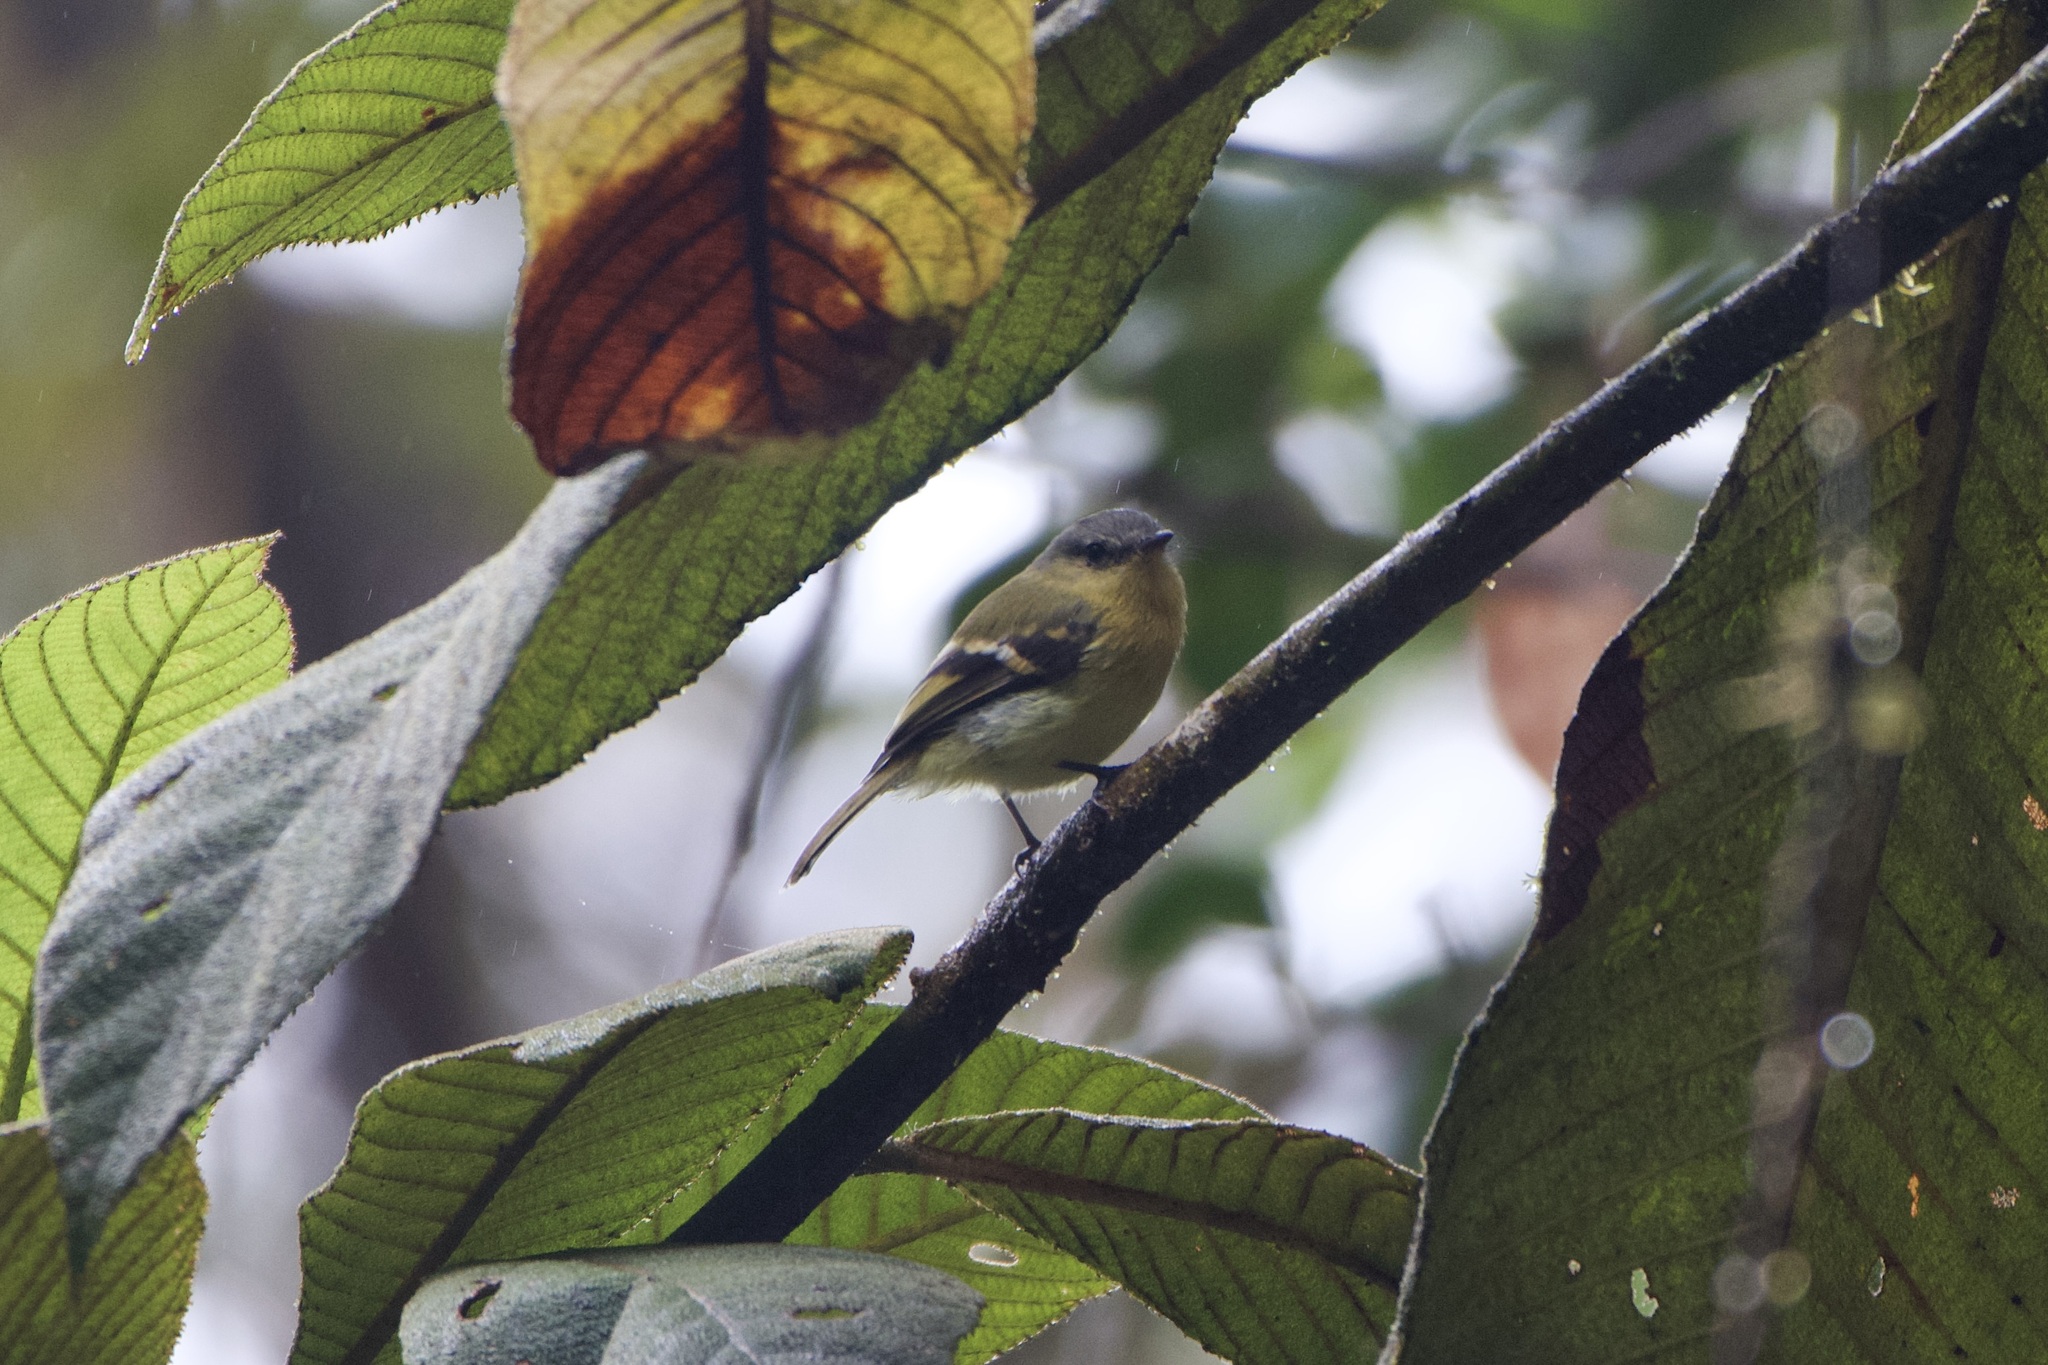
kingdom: Animalia
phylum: Chordata
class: Aves
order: Passeriformes
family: Tyrannidae
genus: Myiophobus
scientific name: Myiophobus pulcher
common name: Handsome flycatcher
